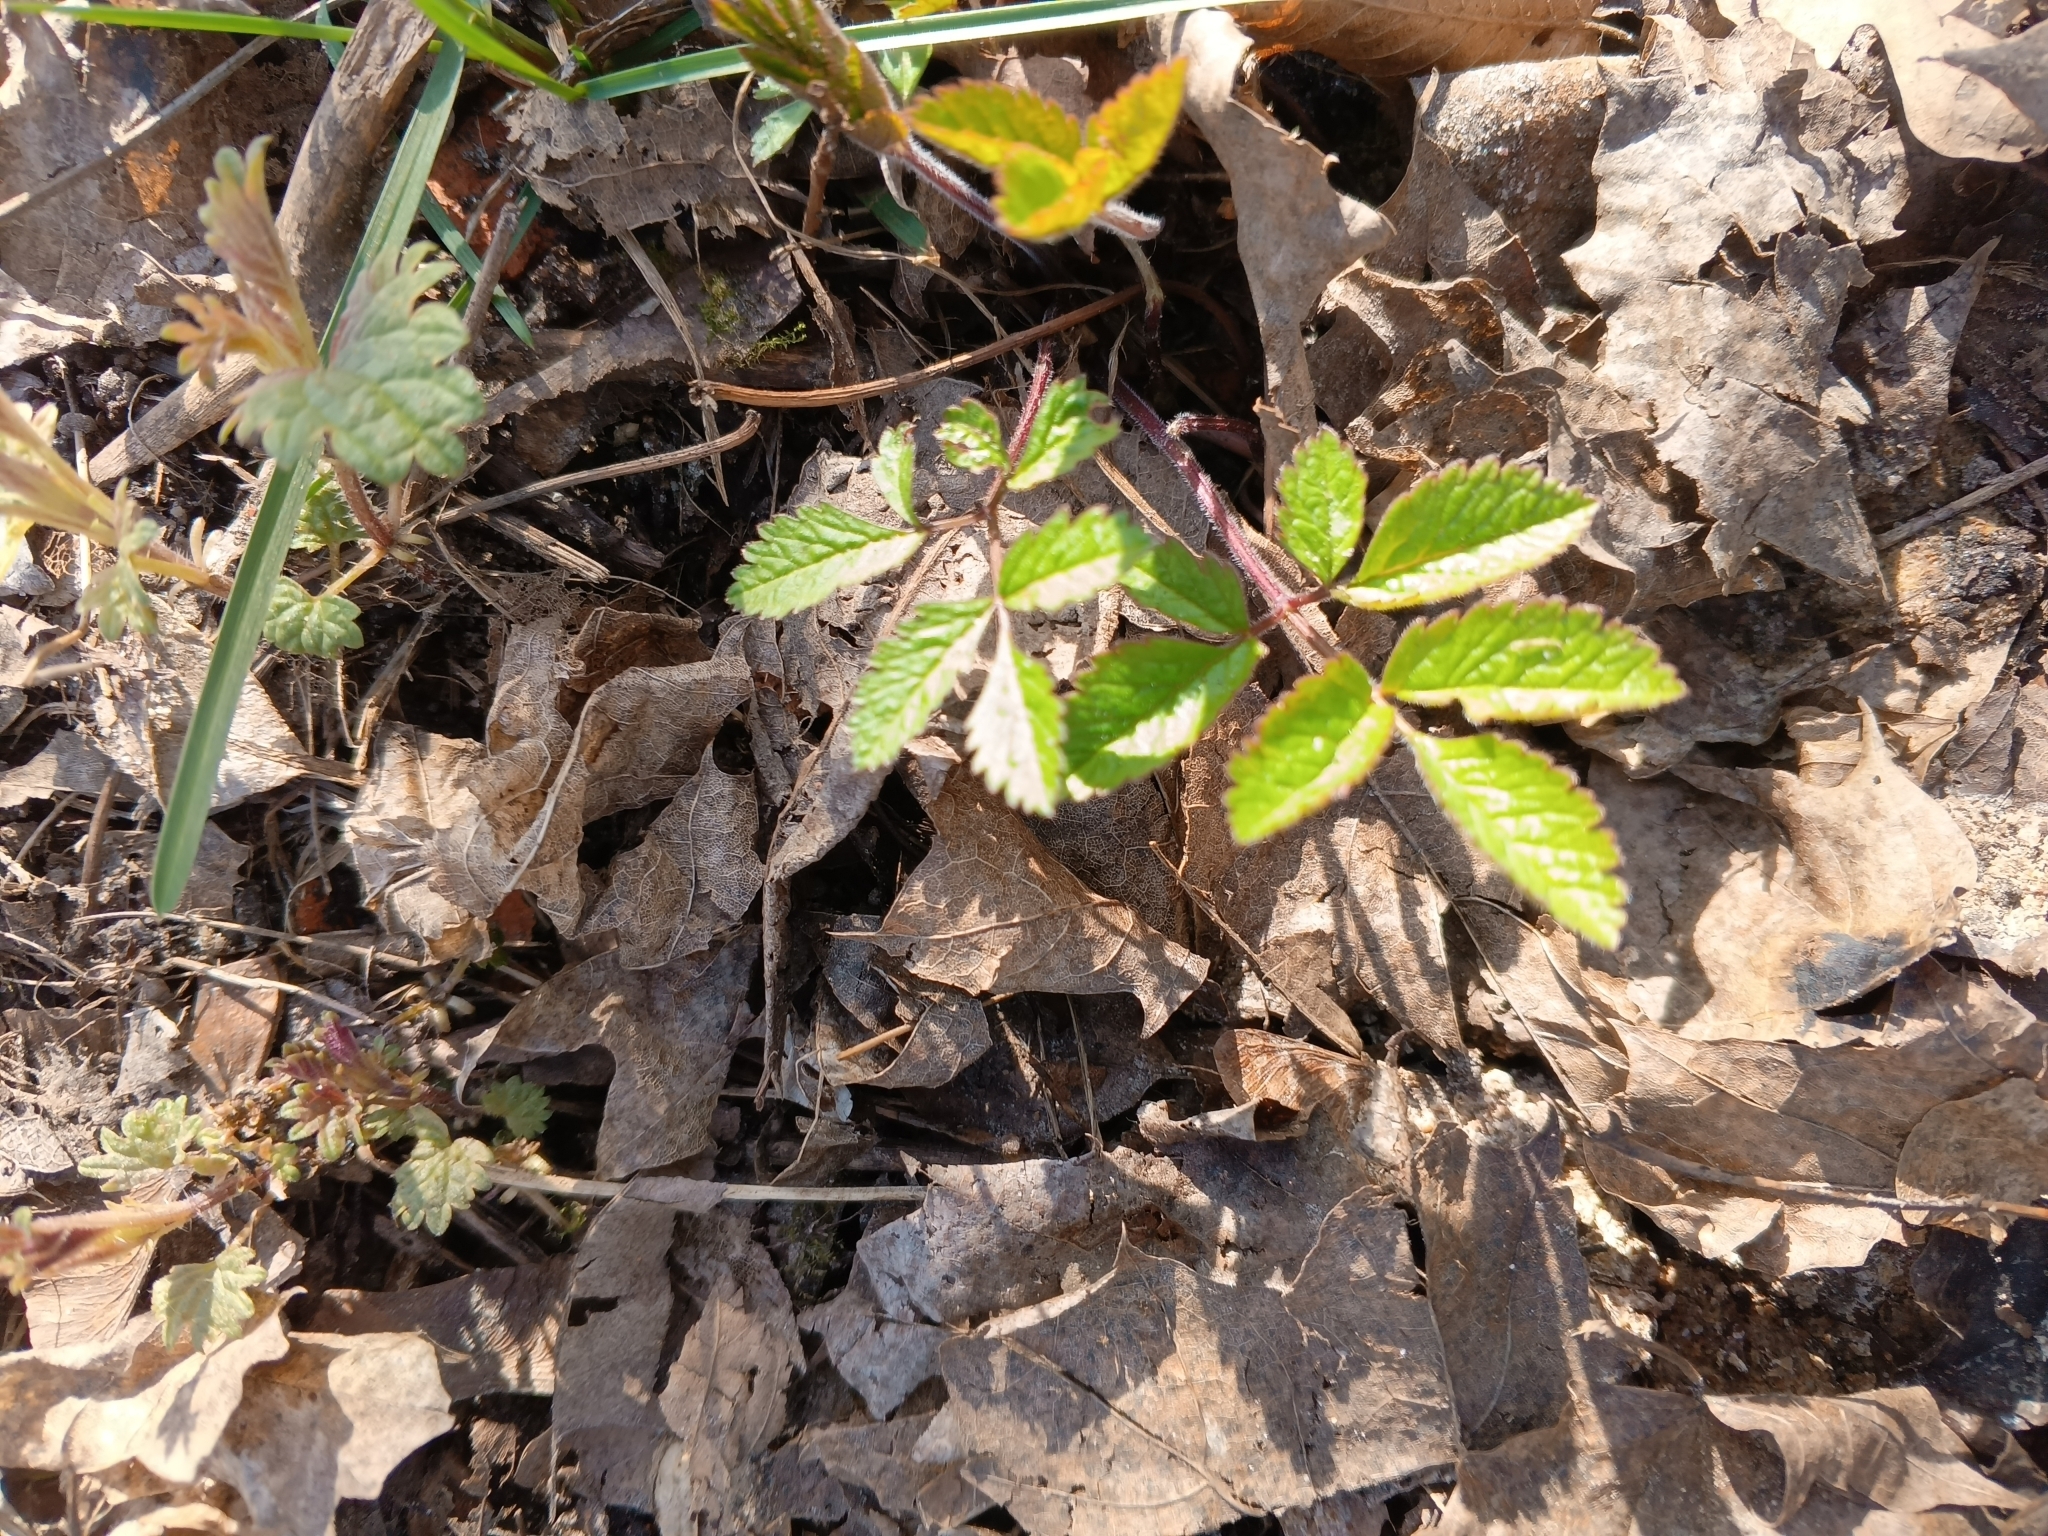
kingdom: Plantae
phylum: Tracheophyta
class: Magnoliopsida
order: Apiales
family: Apiaceae
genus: Chaerophyllum
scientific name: Chaerophyllum aromaticum
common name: Broadleaf chervil
